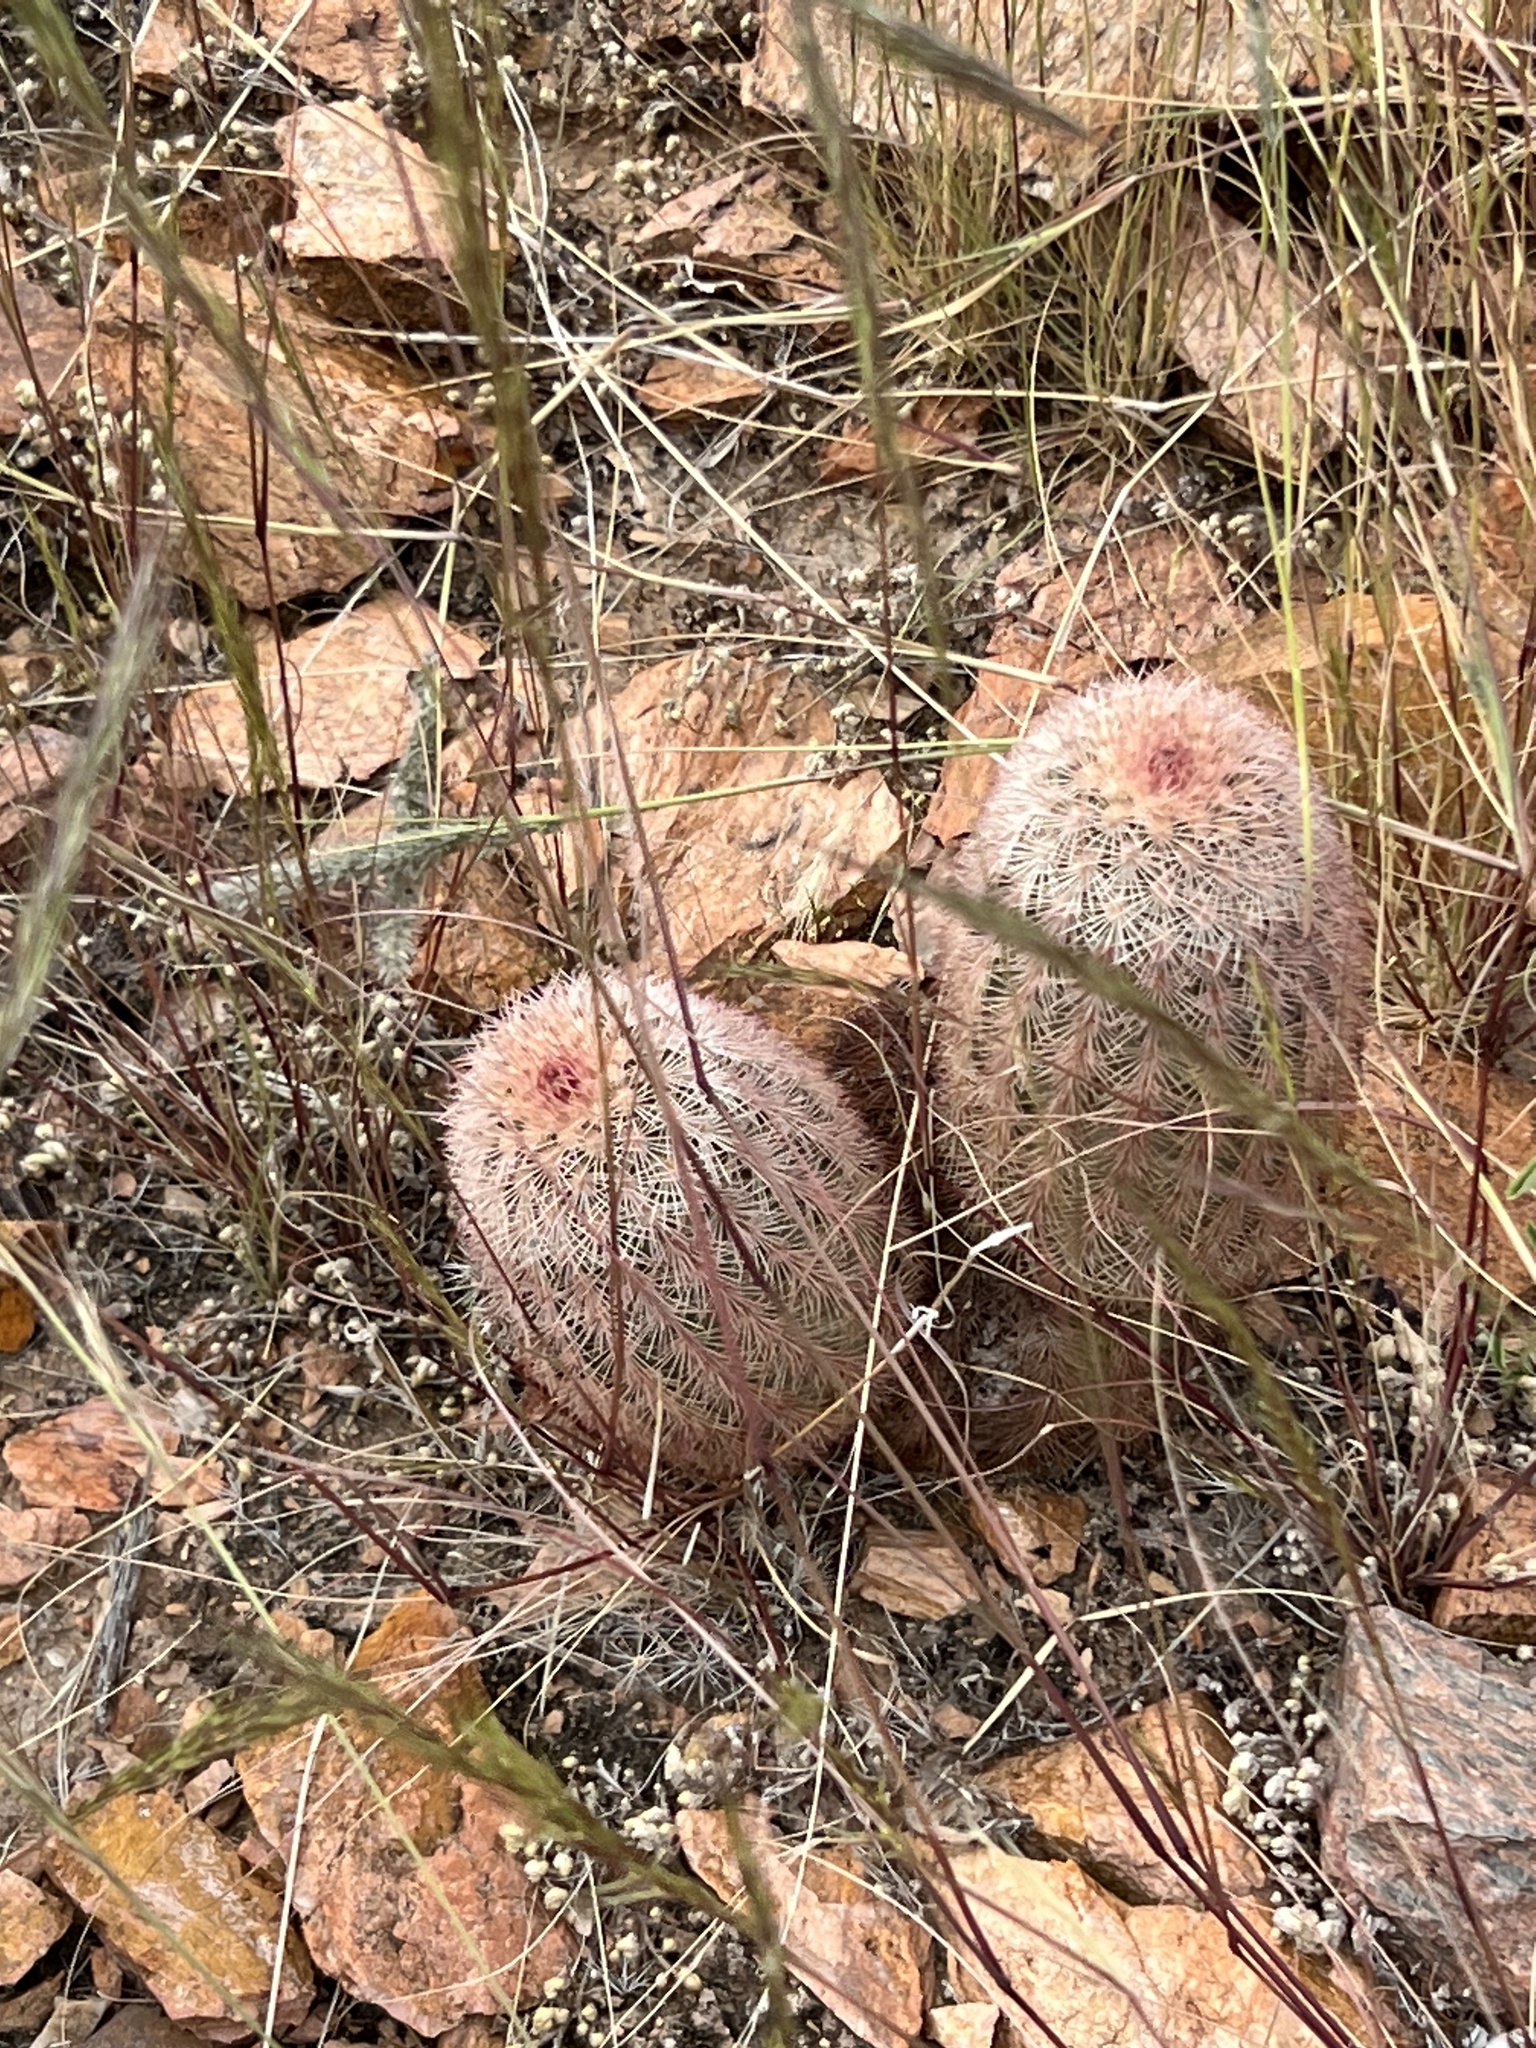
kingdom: Plantae
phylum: Tracheophyta
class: Magnoliopsida
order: Caryophyllales
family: Cactaceae
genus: Echinocereus
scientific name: Echinocereus dasyacanthus
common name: Spiny hedgehog cactus
